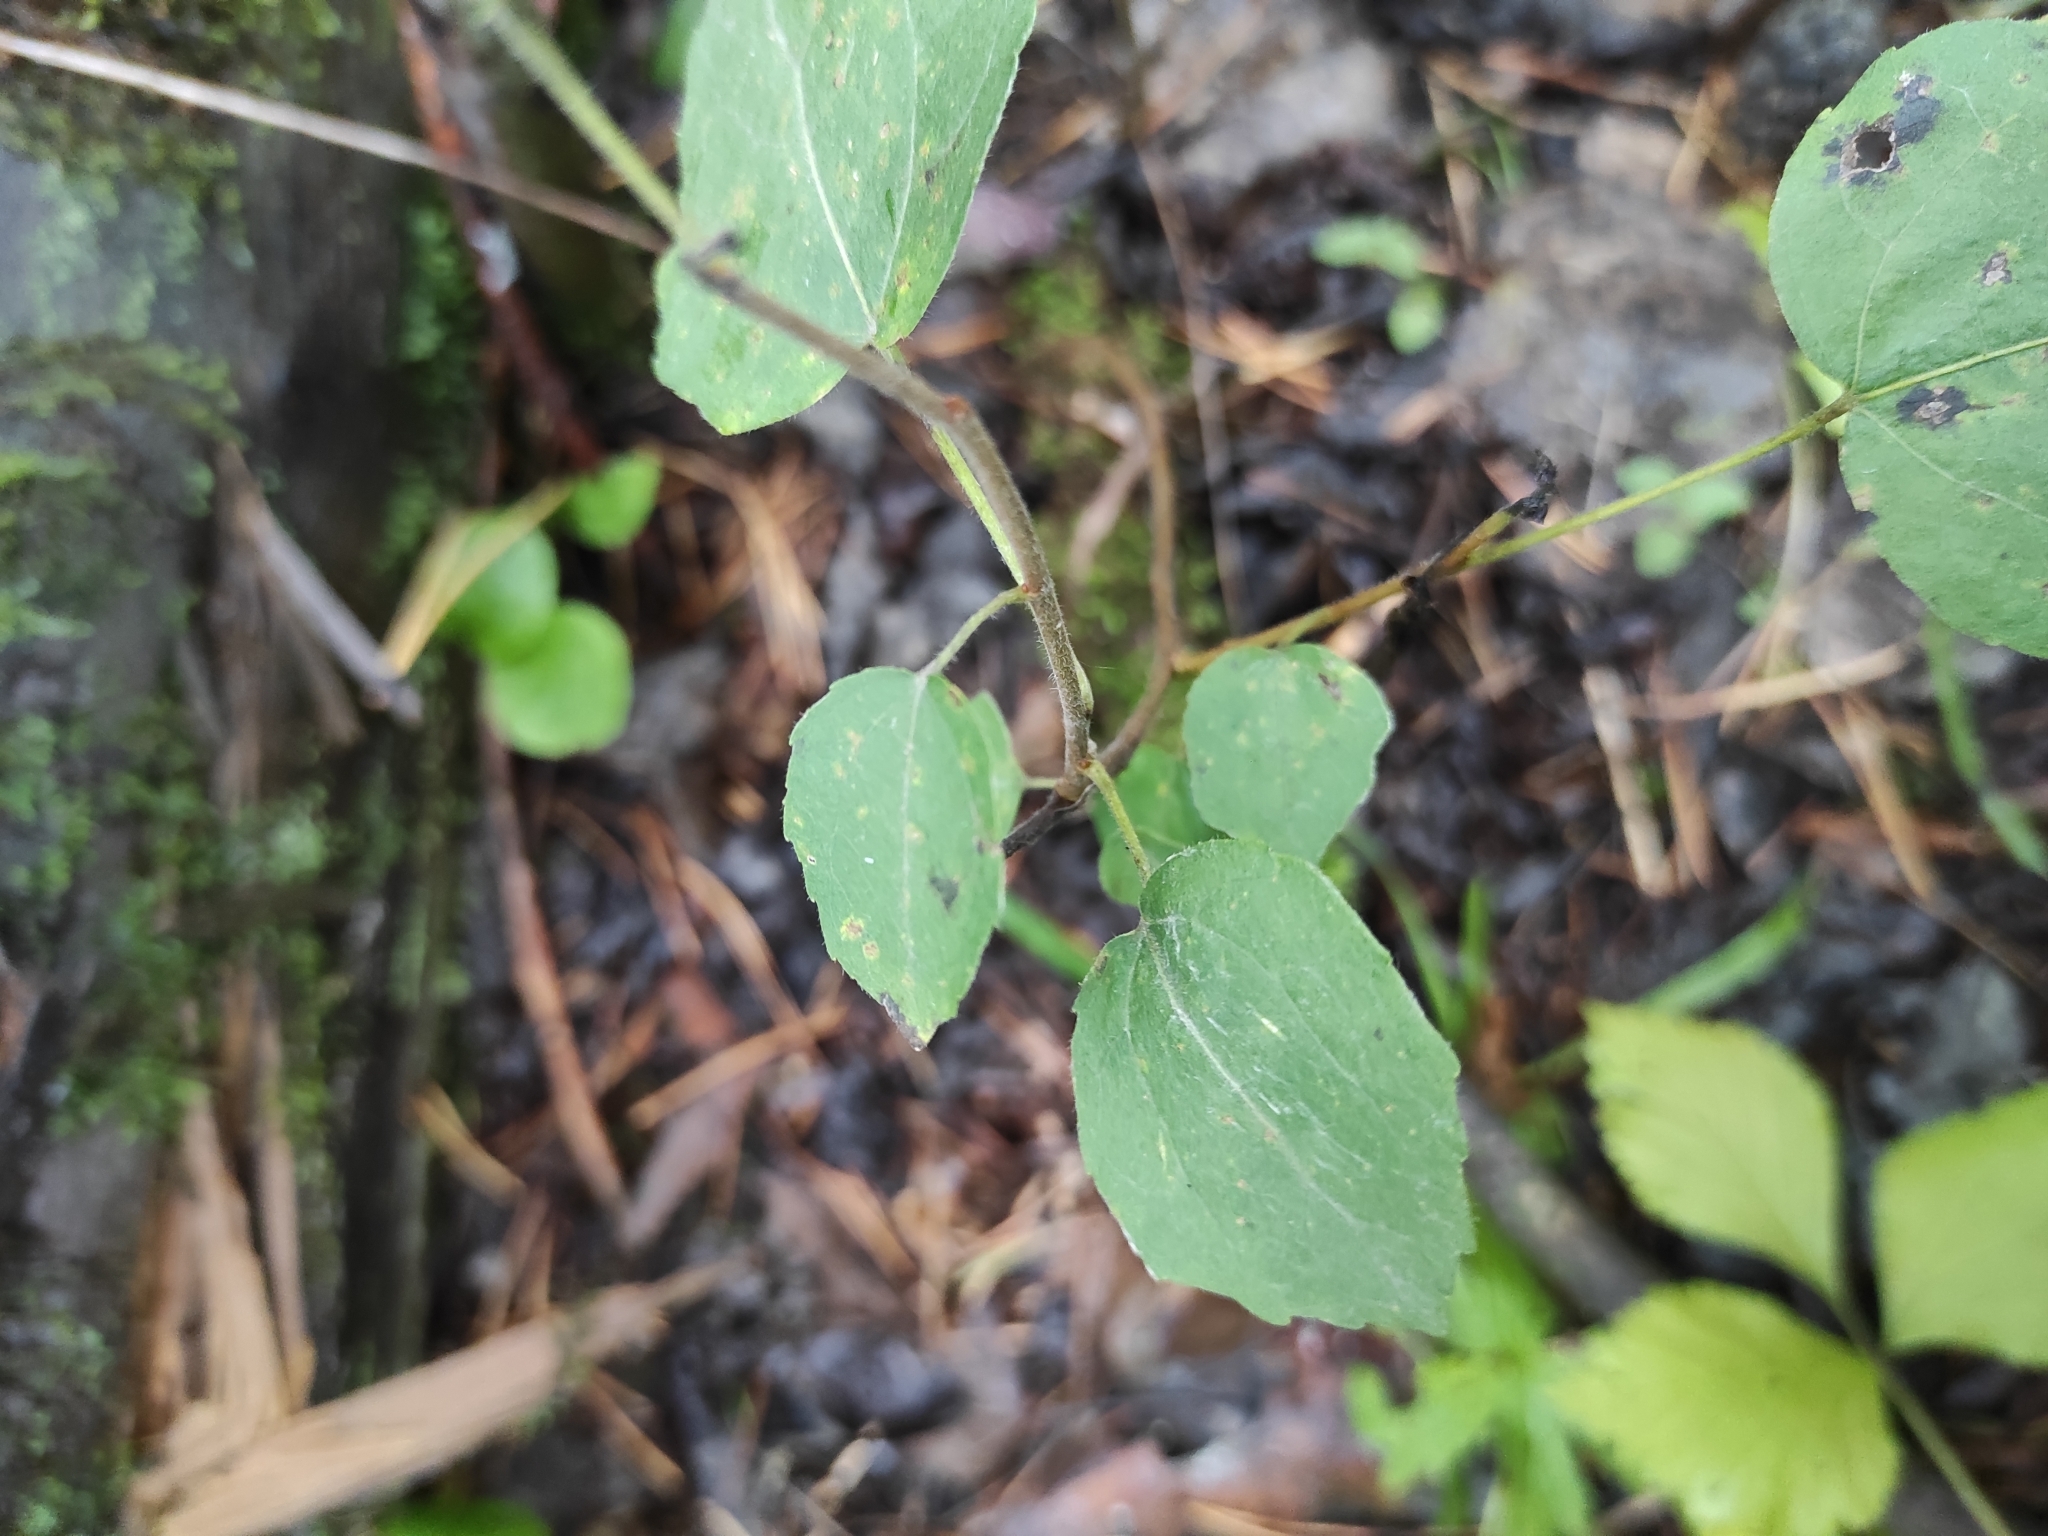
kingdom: Plantae
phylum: Tracheophyta
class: Magnoliopsida
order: Malpighiales
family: Salicaceae
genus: Populus
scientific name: Populus tremula
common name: European aspen
